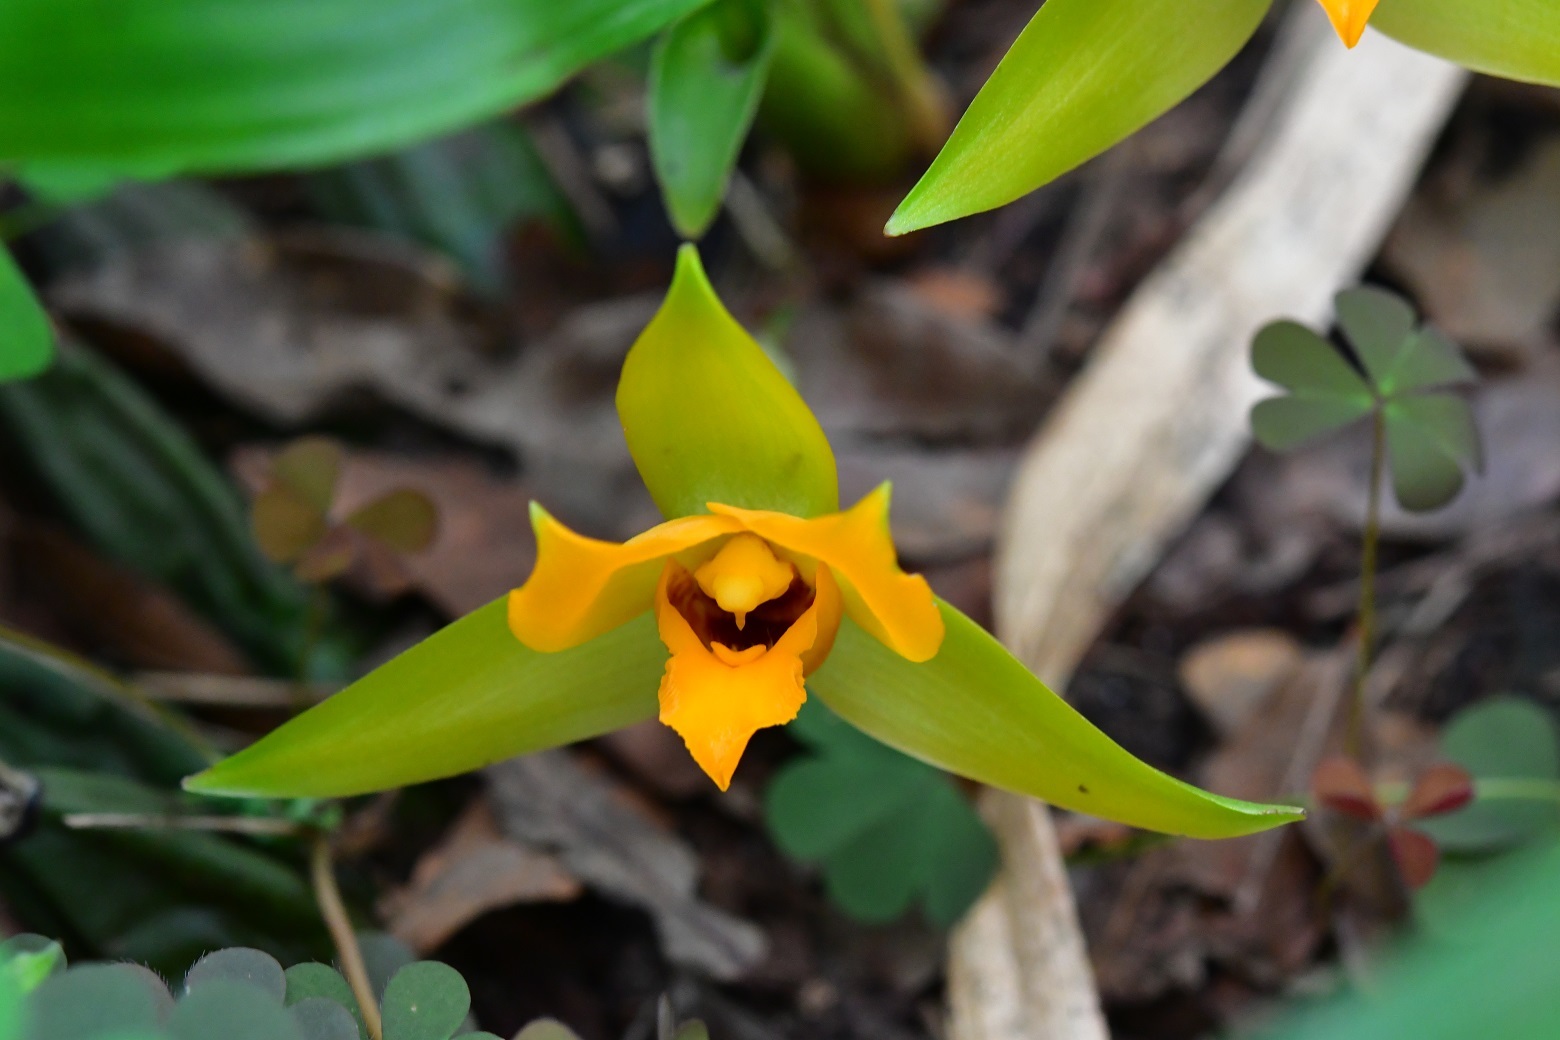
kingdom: Plantae
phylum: Tracheophyta
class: Liliopsida
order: Asparagales
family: Orchidaceae
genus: Lycaste
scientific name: Lycaste cruenta
